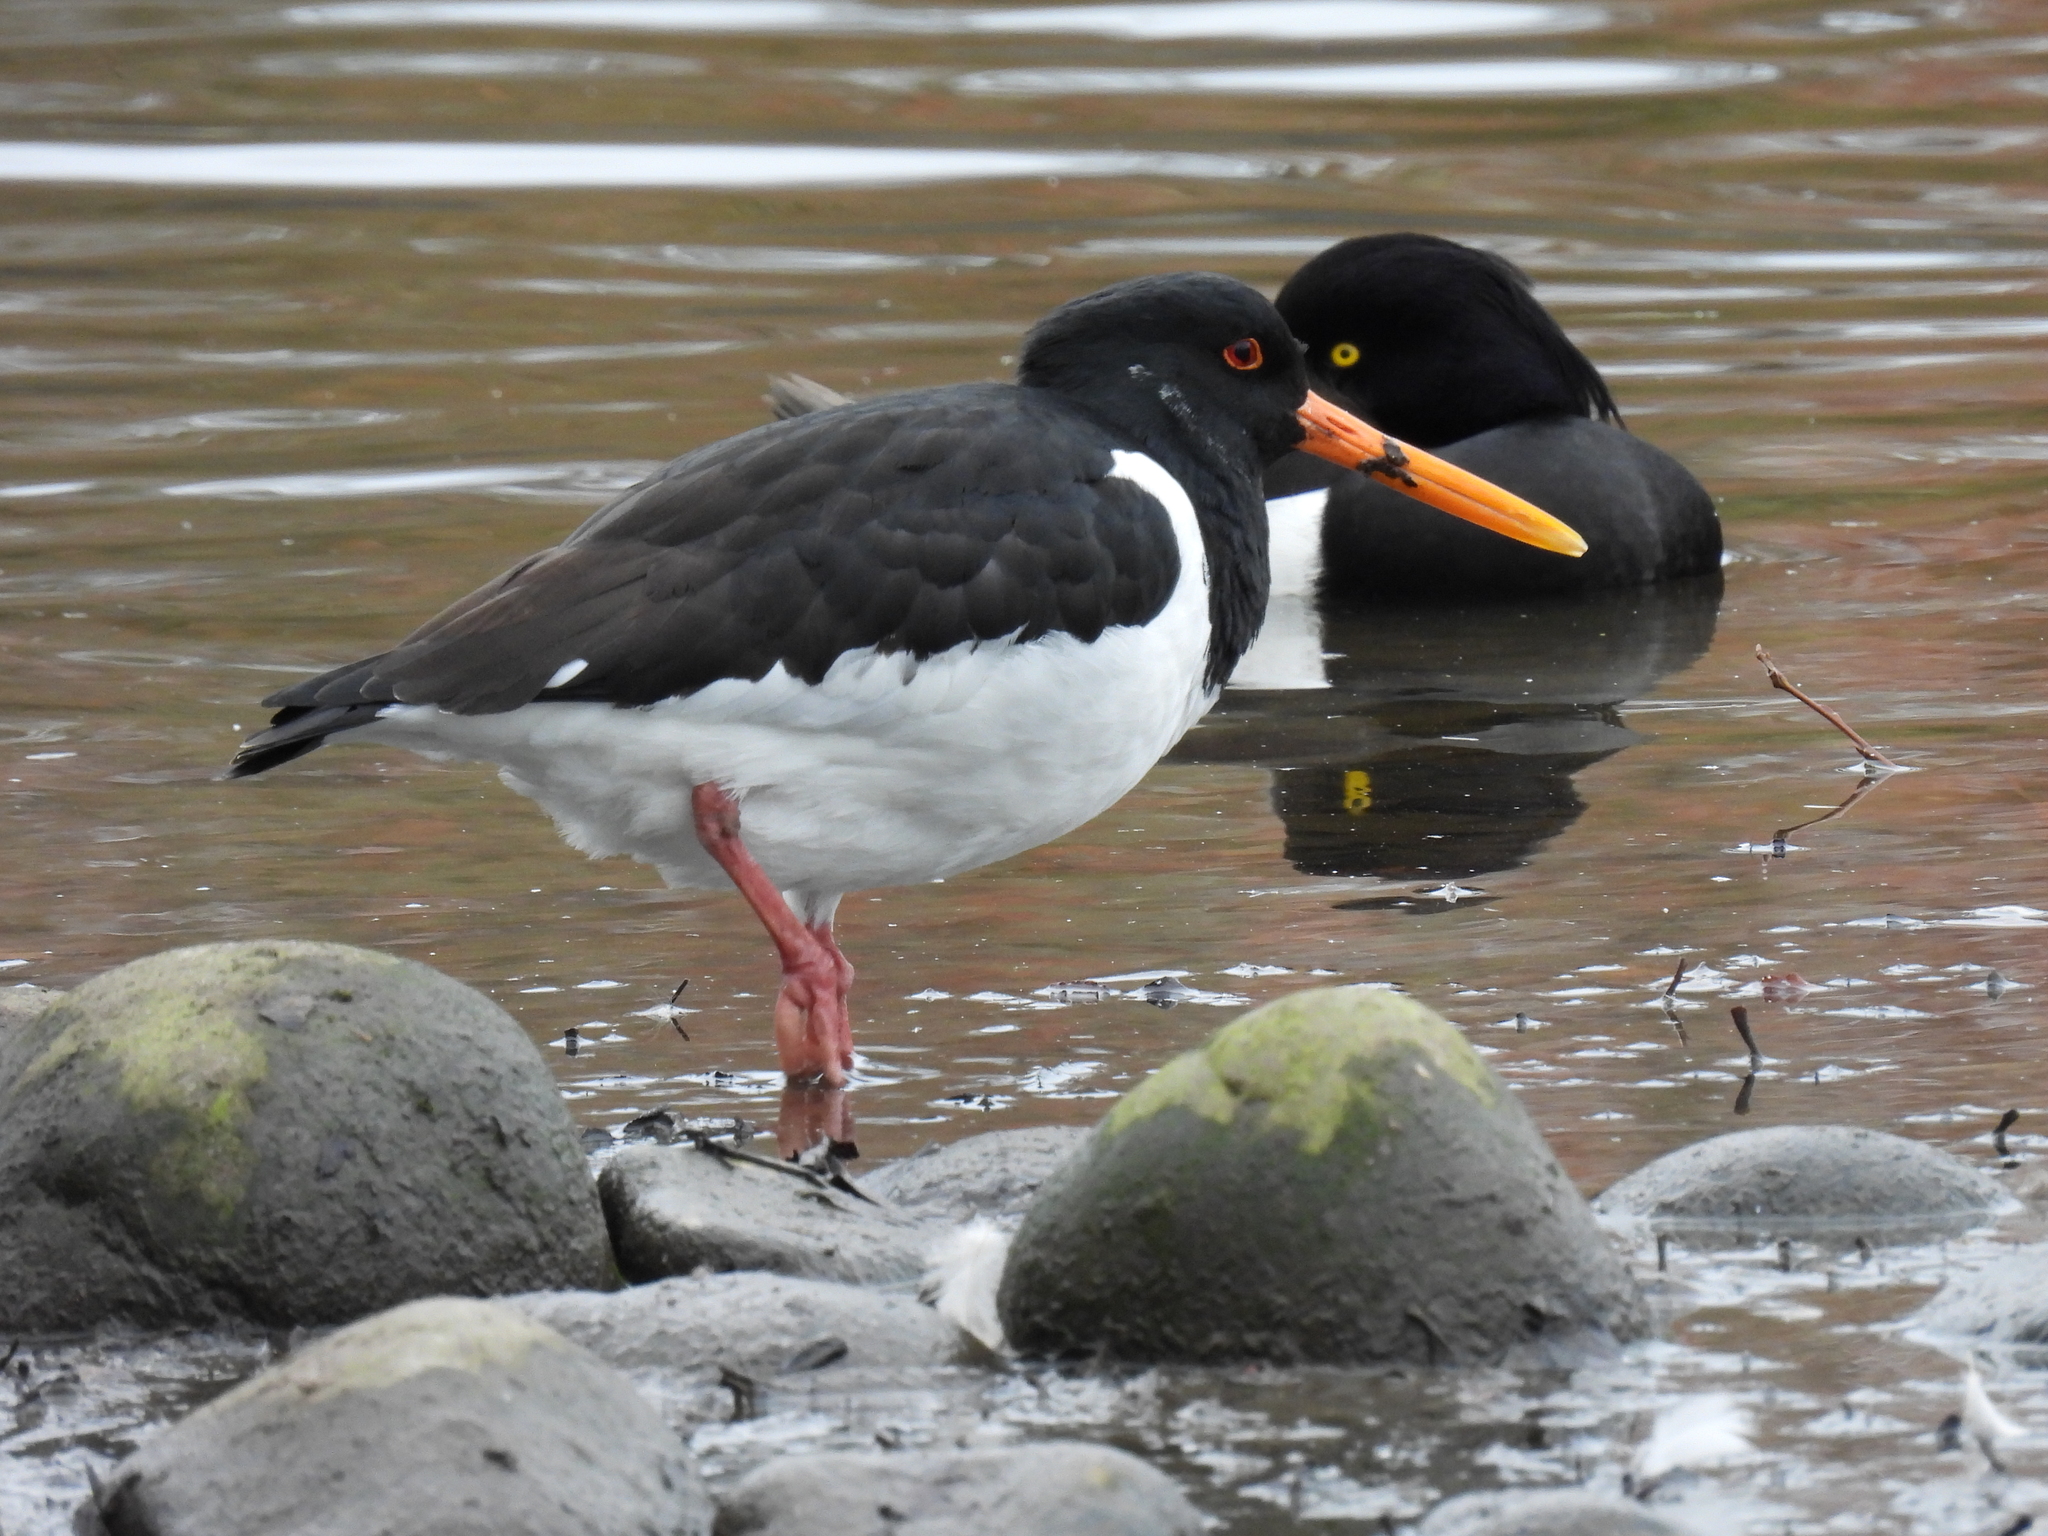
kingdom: Animalia
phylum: Chordata
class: Aves
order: Charadriiformes
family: Haematopodidae
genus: Haematopus
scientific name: Haematopus ostralegus
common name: Eurasian oystercatcher
